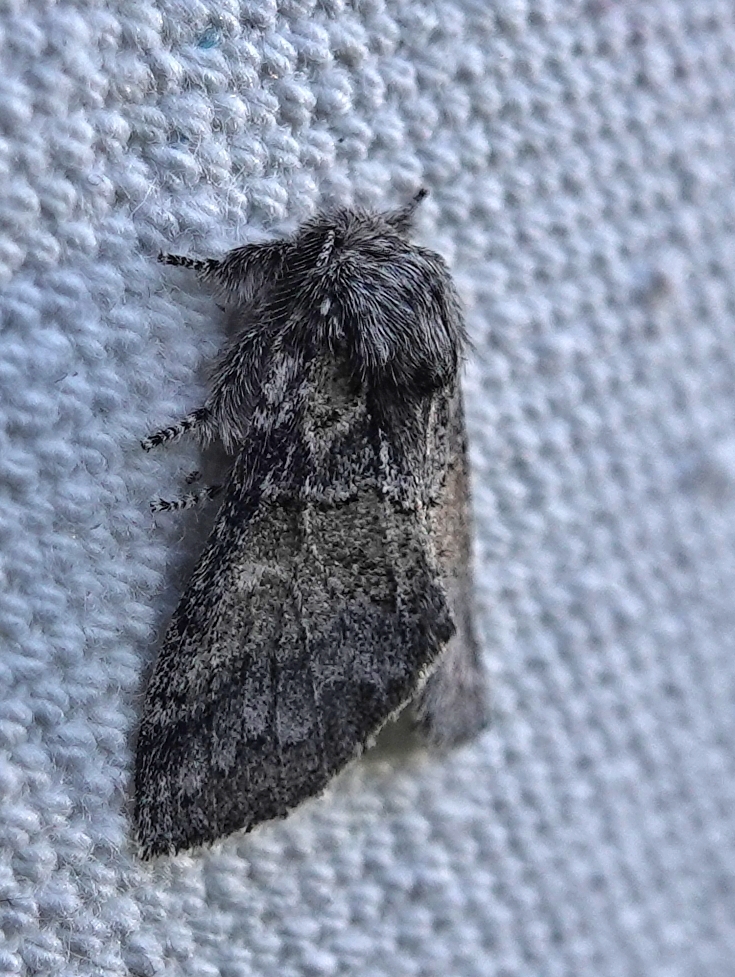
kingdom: Animalia
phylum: Arthropoda
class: Insecta
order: Lepidoptera
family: Notodontidae
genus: Gluphisia
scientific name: Gluphisia septentrionis
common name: Common gluphisia
